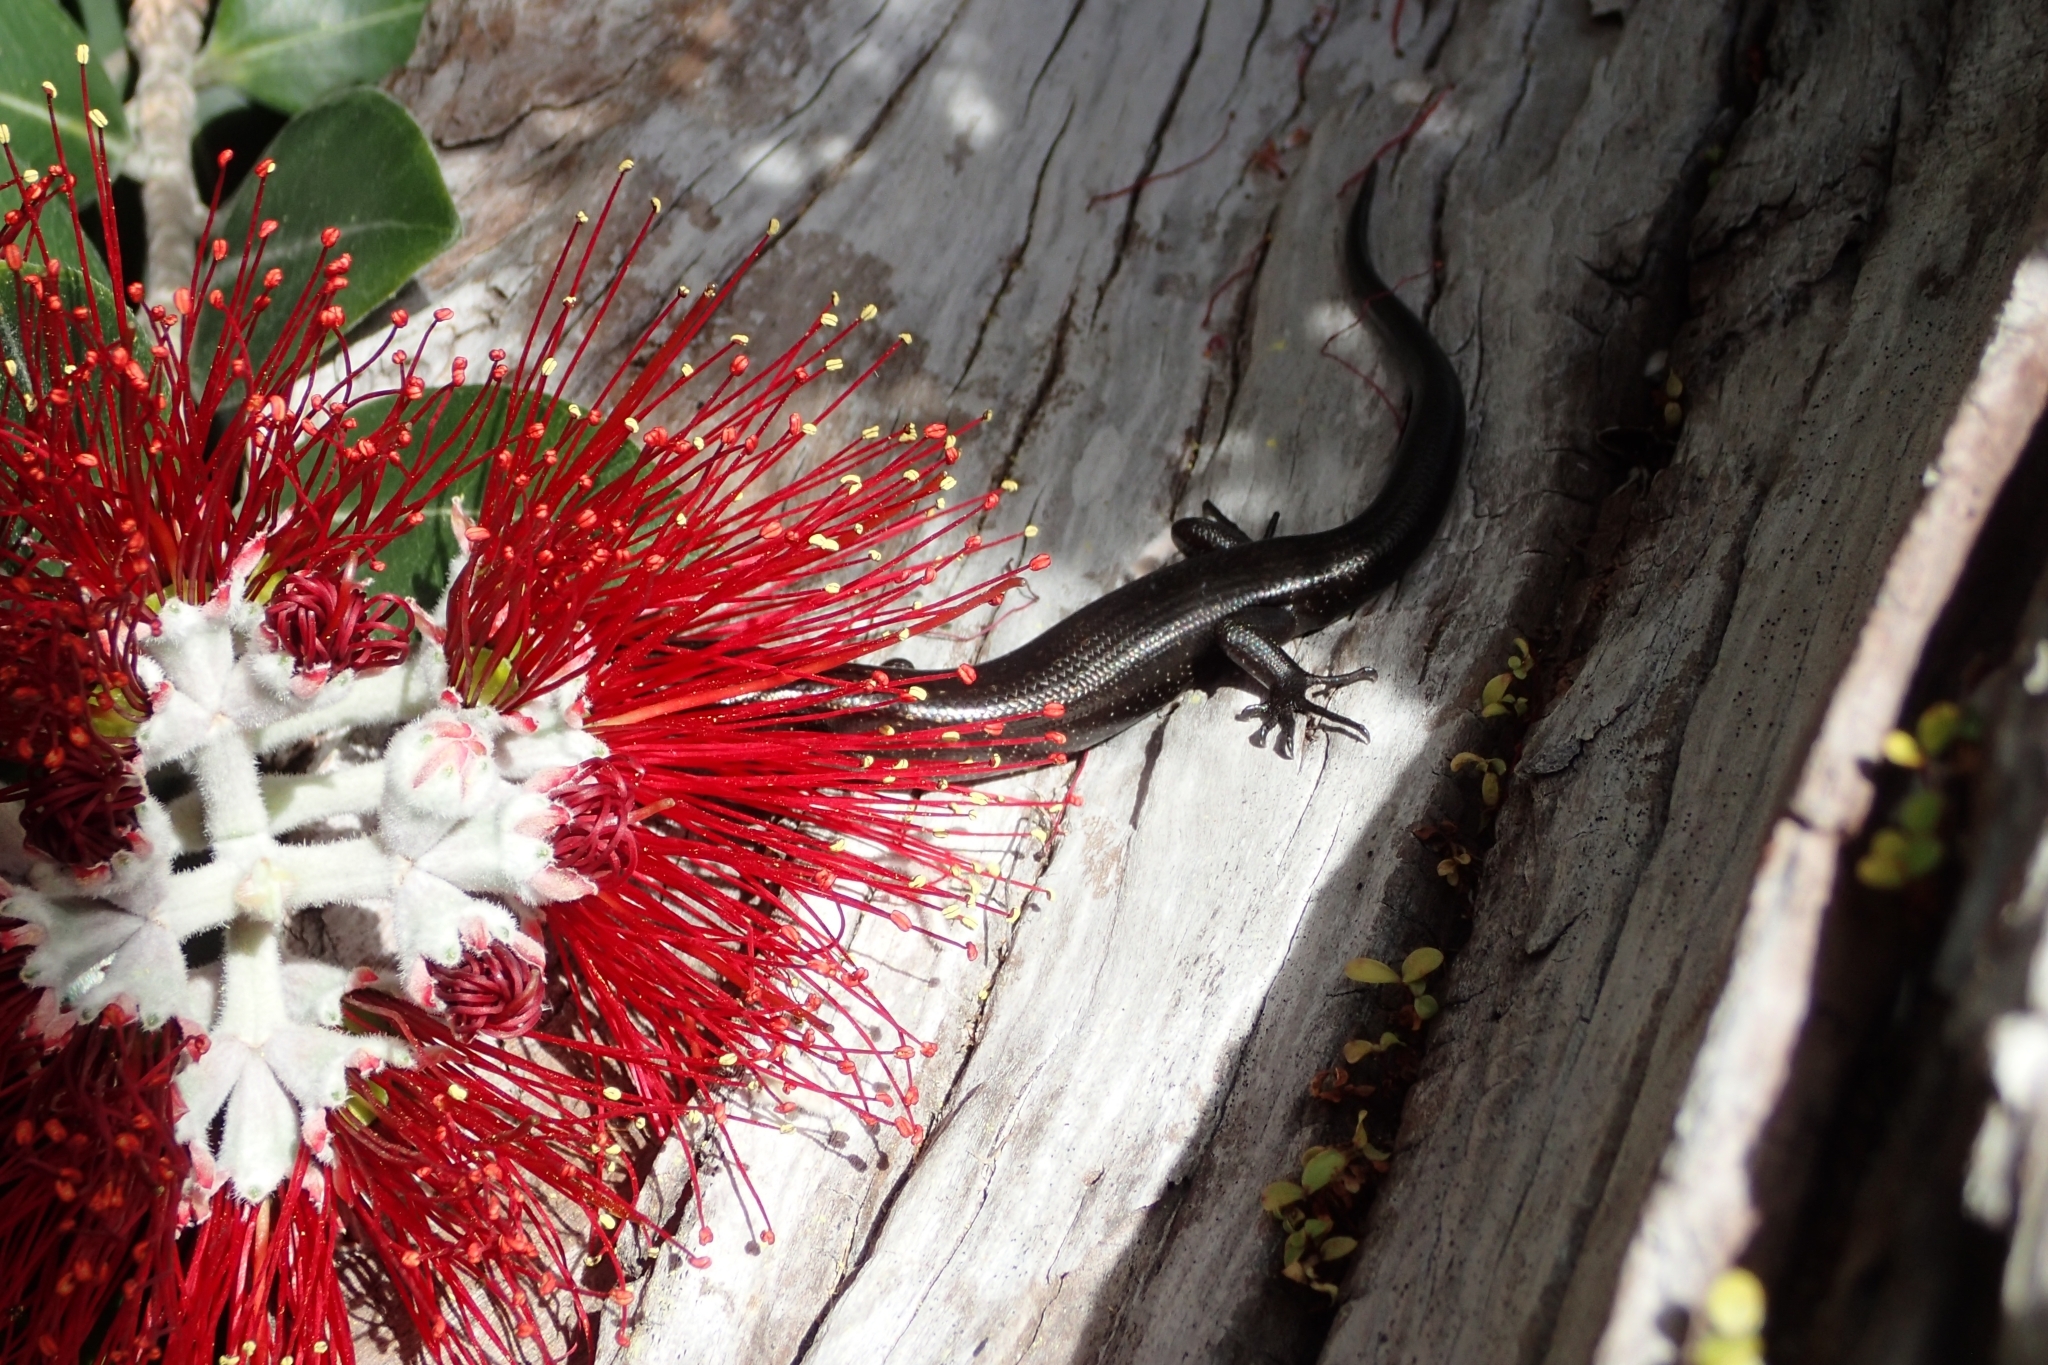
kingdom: Animalia
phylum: Chordata
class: Squamata
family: Scincidae
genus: Oligosoma
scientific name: Oligosoma smithi
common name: Shore skink
